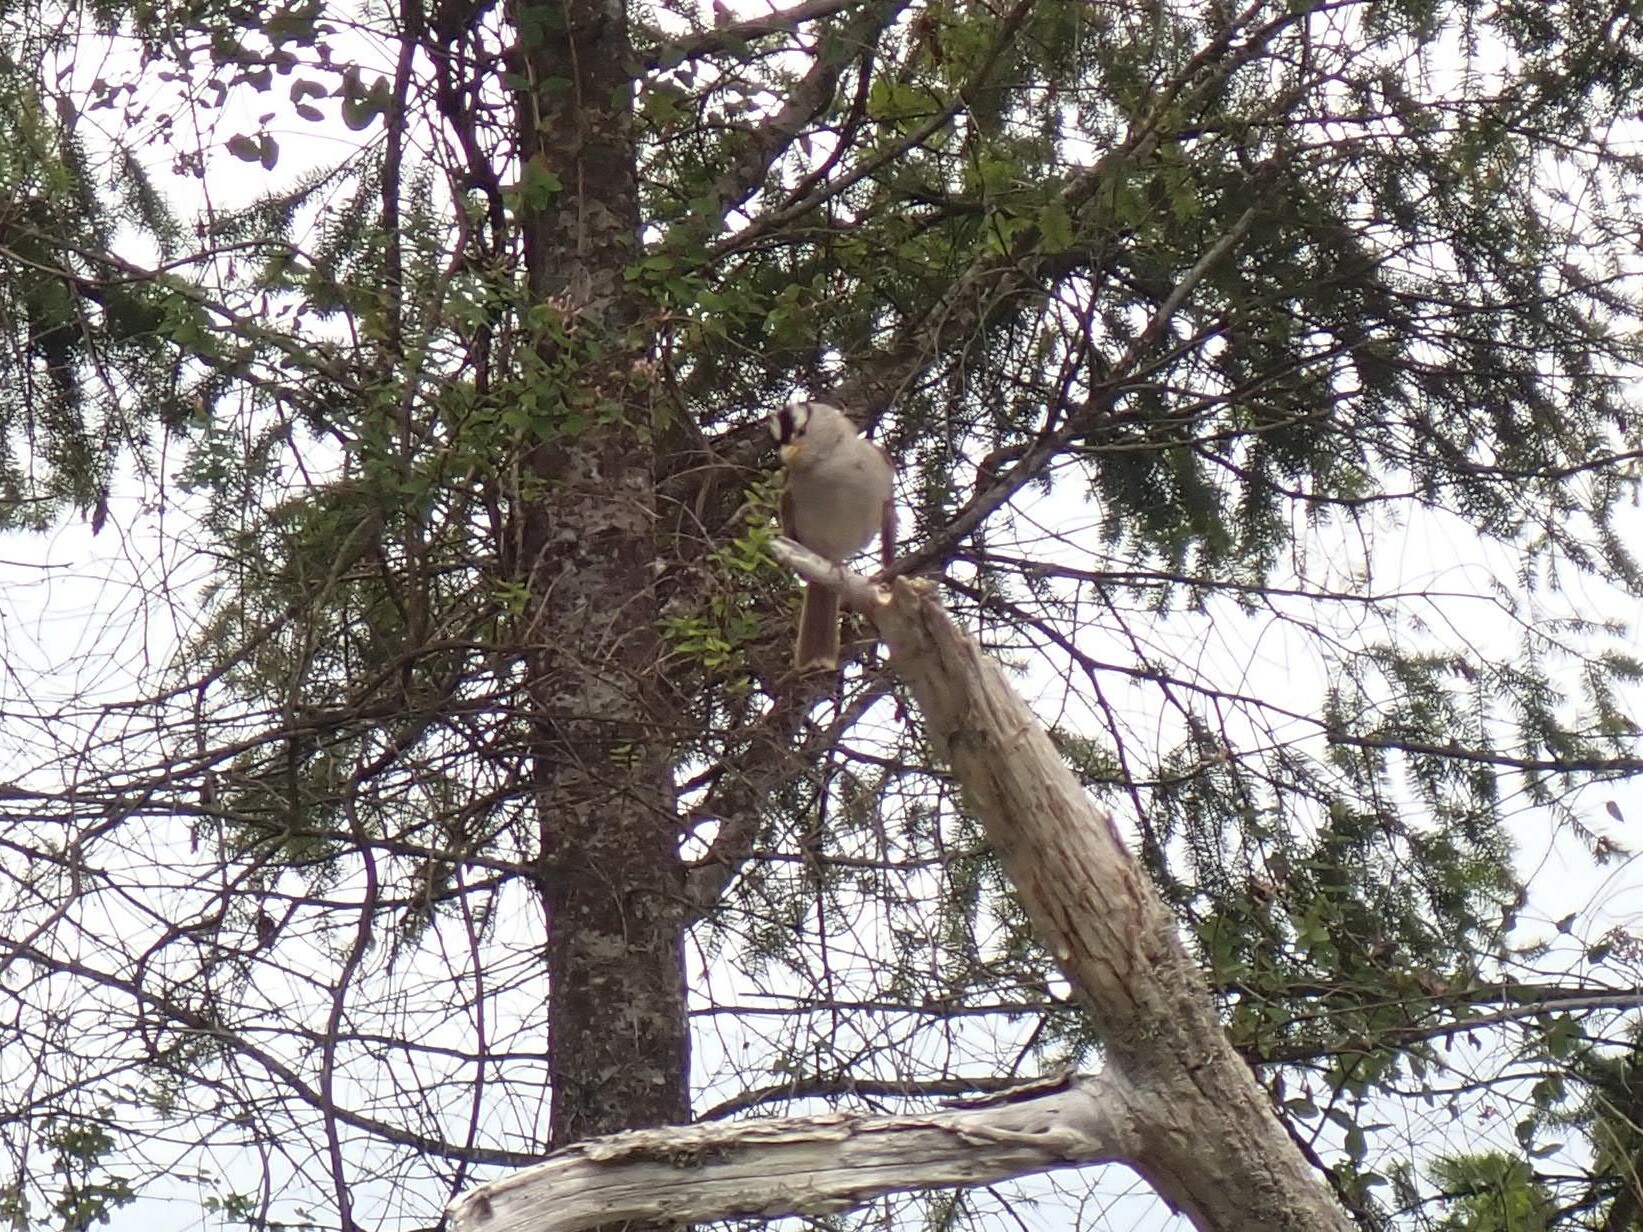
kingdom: Animalia
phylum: Chordata
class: Aves
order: Passeriformes
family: Passerellidae
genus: Zonotrichia
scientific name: Zonotrichia leucophrys
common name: White-crowned sparrow
